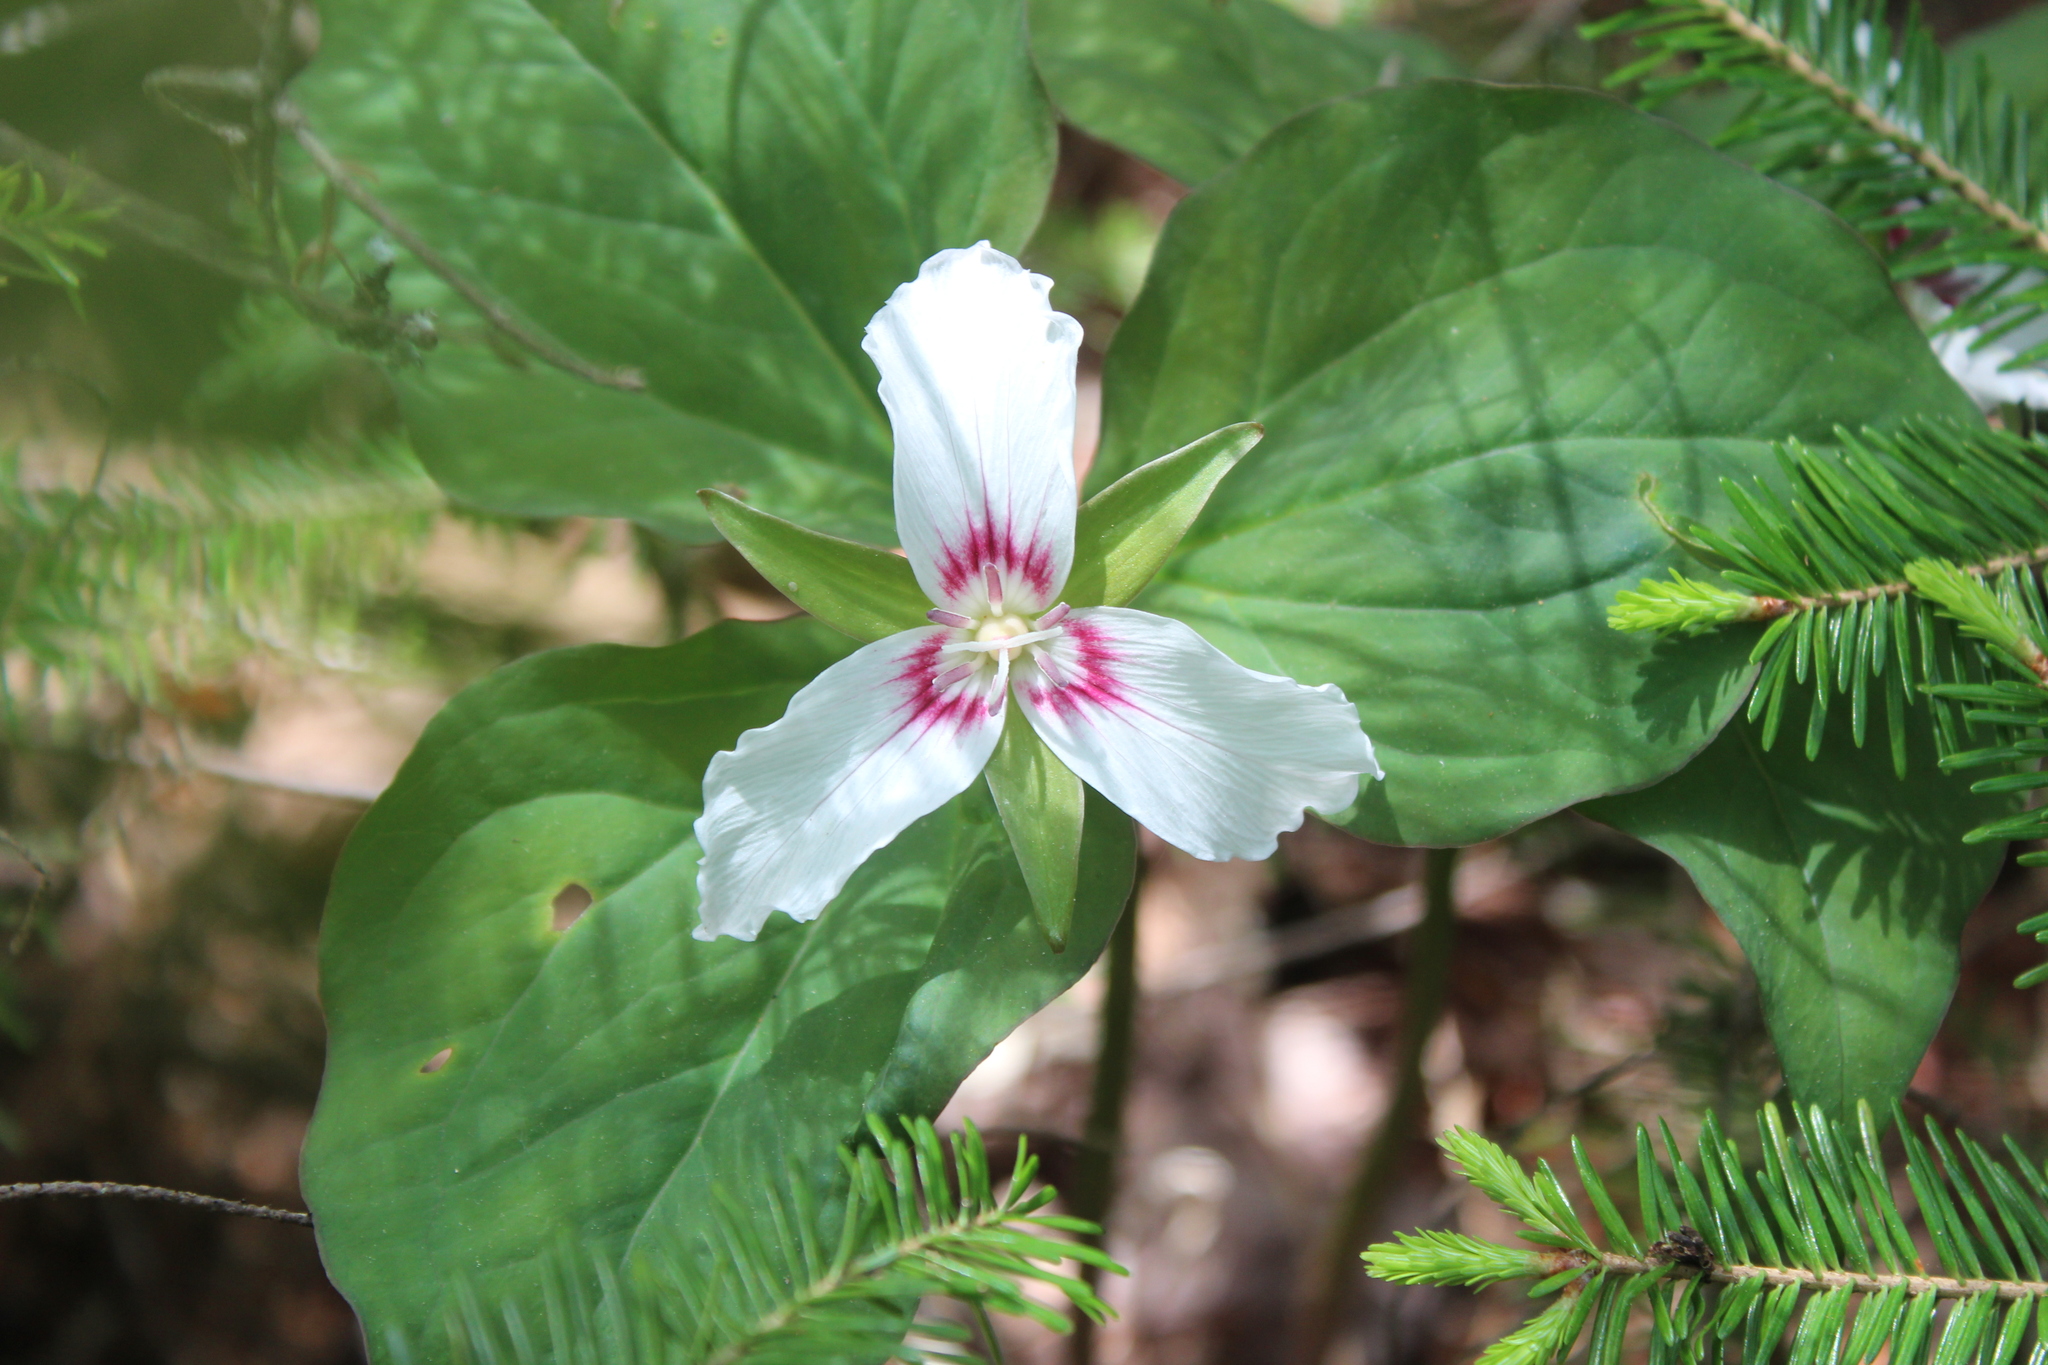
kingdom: Plantae
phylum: Tracheophyta
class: Liliopsida
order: Liliales
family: Melanthiaceae
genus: Trillium
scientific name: Trillium undulatum
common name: Paint trillium
